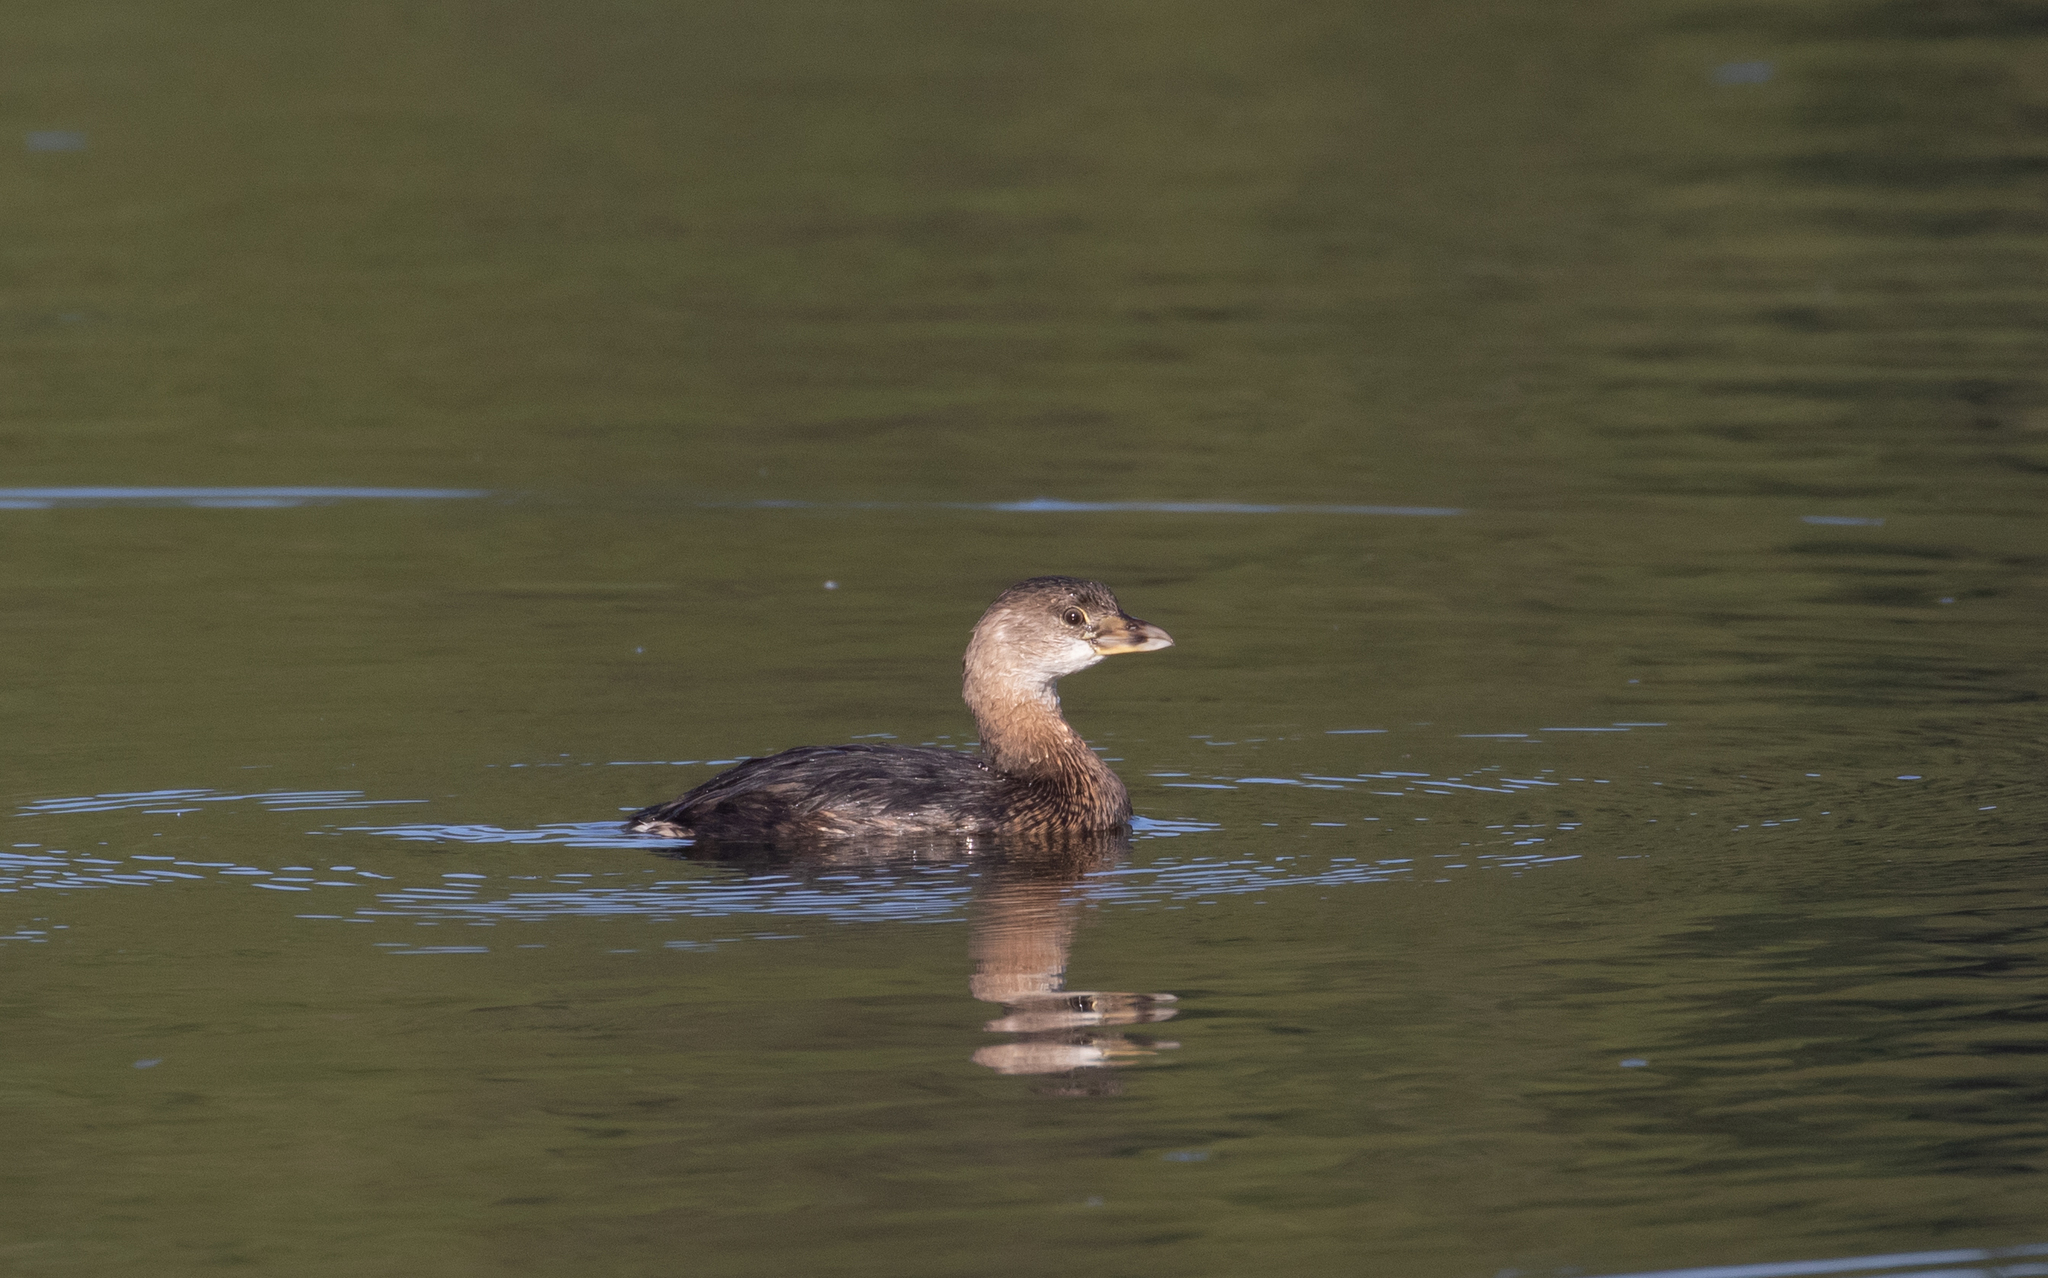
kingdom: Animalia
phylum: Chordata
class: Aves
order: Podicipediformes
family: Podicipedidae
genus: Podilymbus
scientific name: Podilymbus podiceps
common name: Pied-billed grebe
